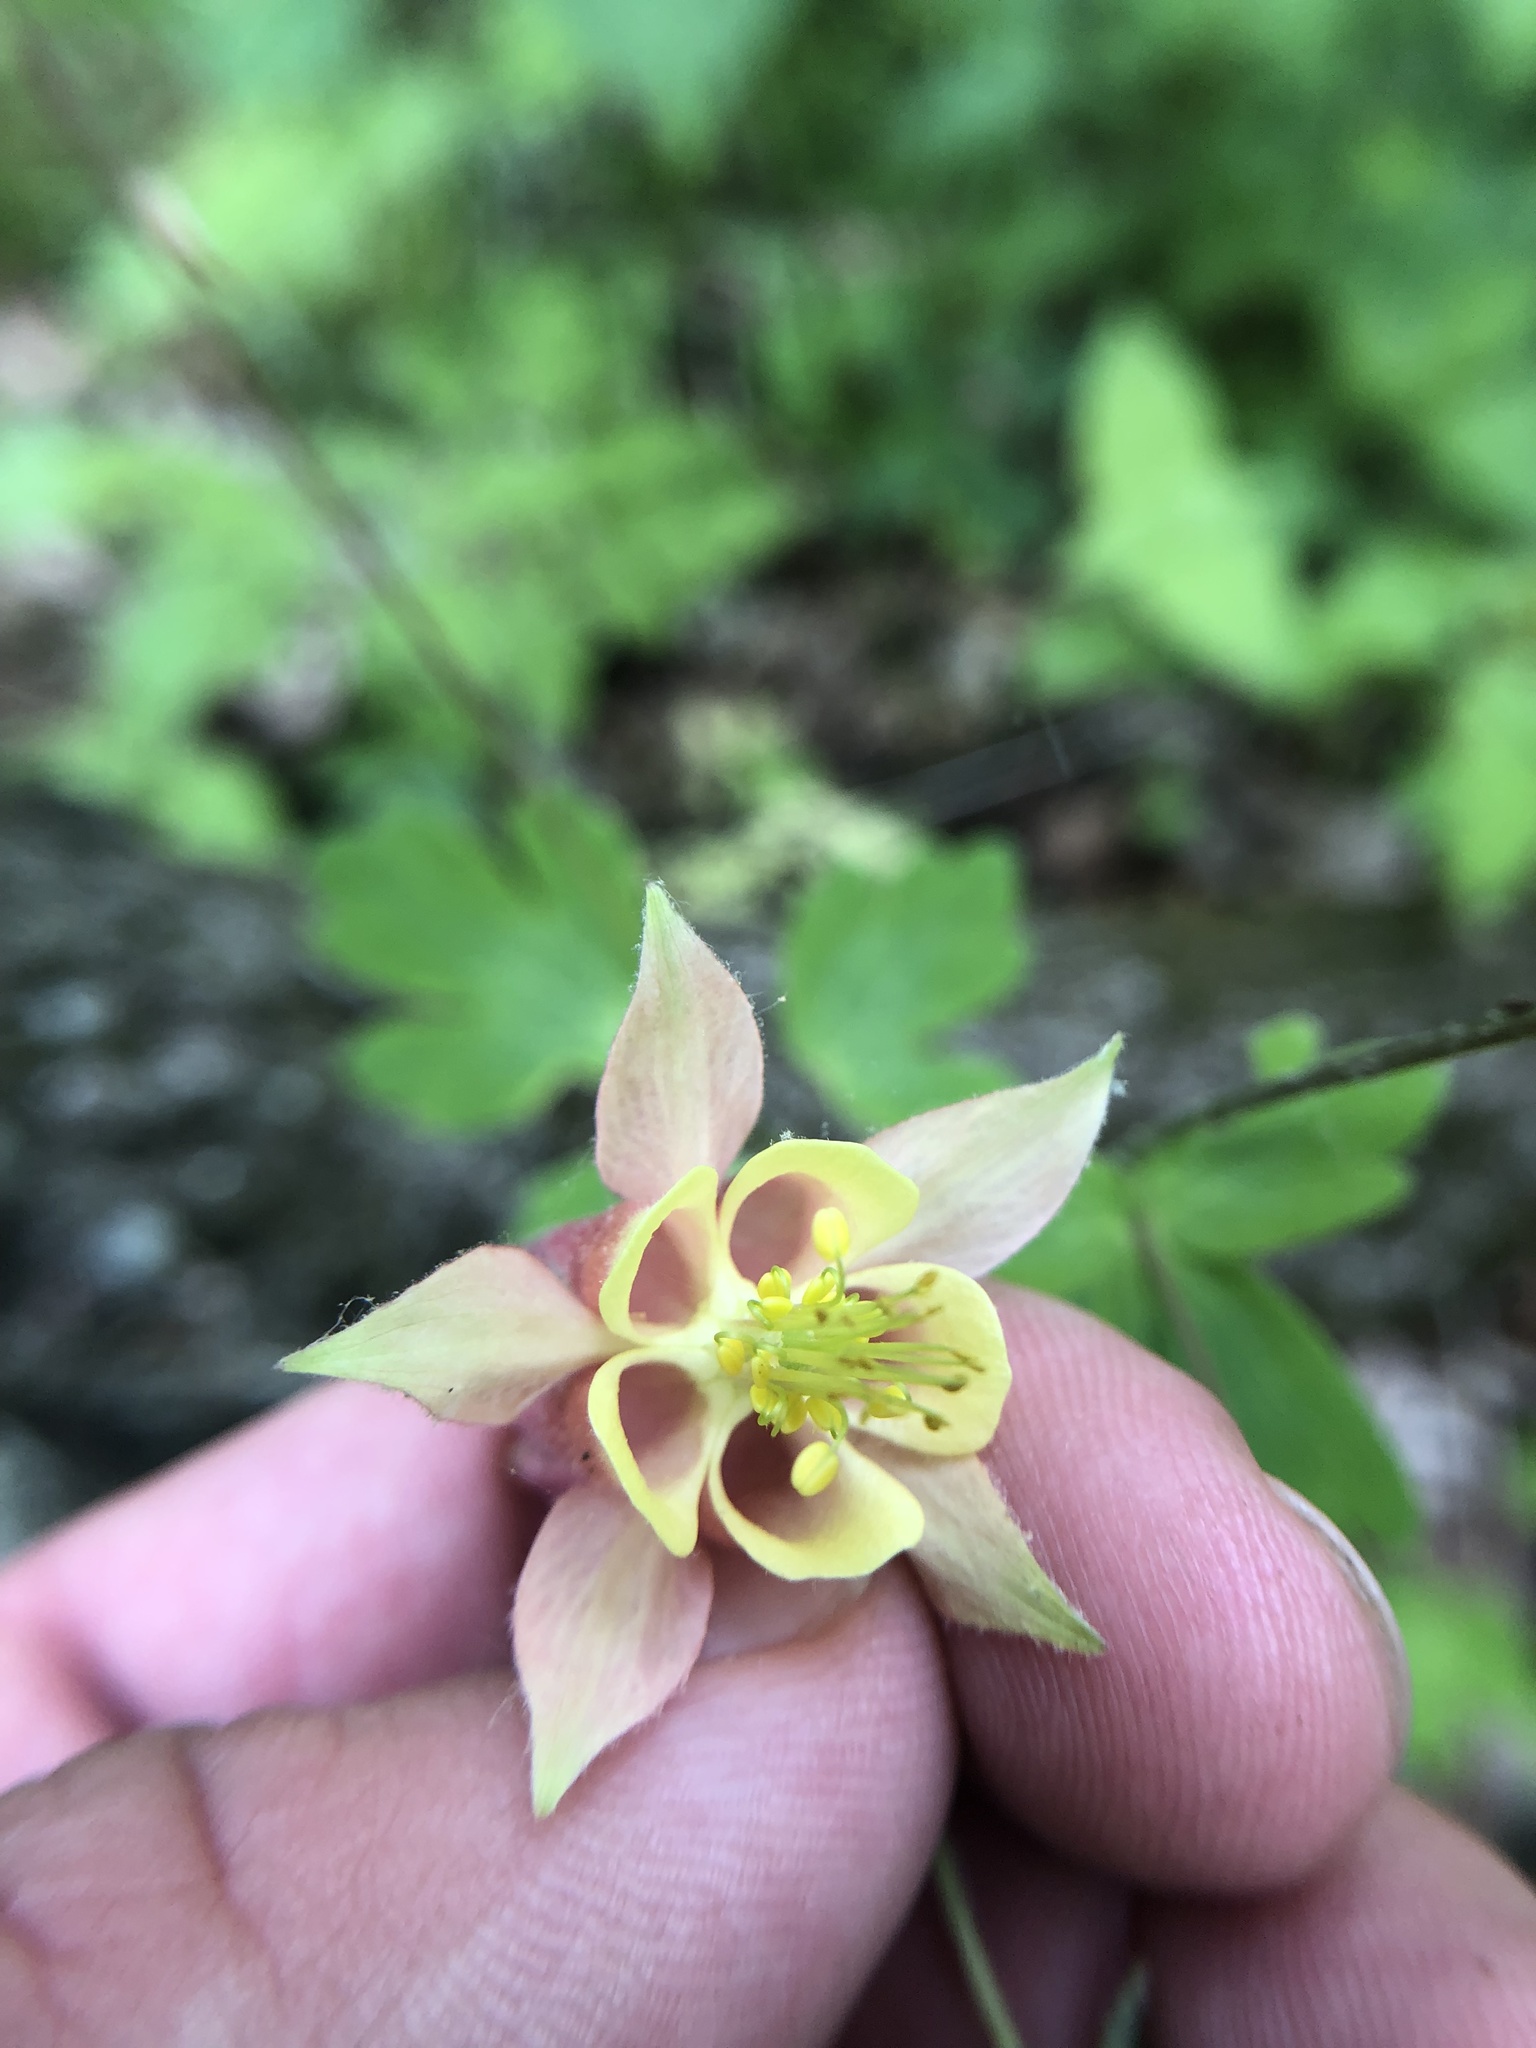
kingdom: Plantae
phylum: Tracheophyta
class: Magnoliopsida
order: Ranunculales
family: Ranunculaceae
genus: Aquilegia
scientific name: Aquilegia canadensis
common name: American columbine
